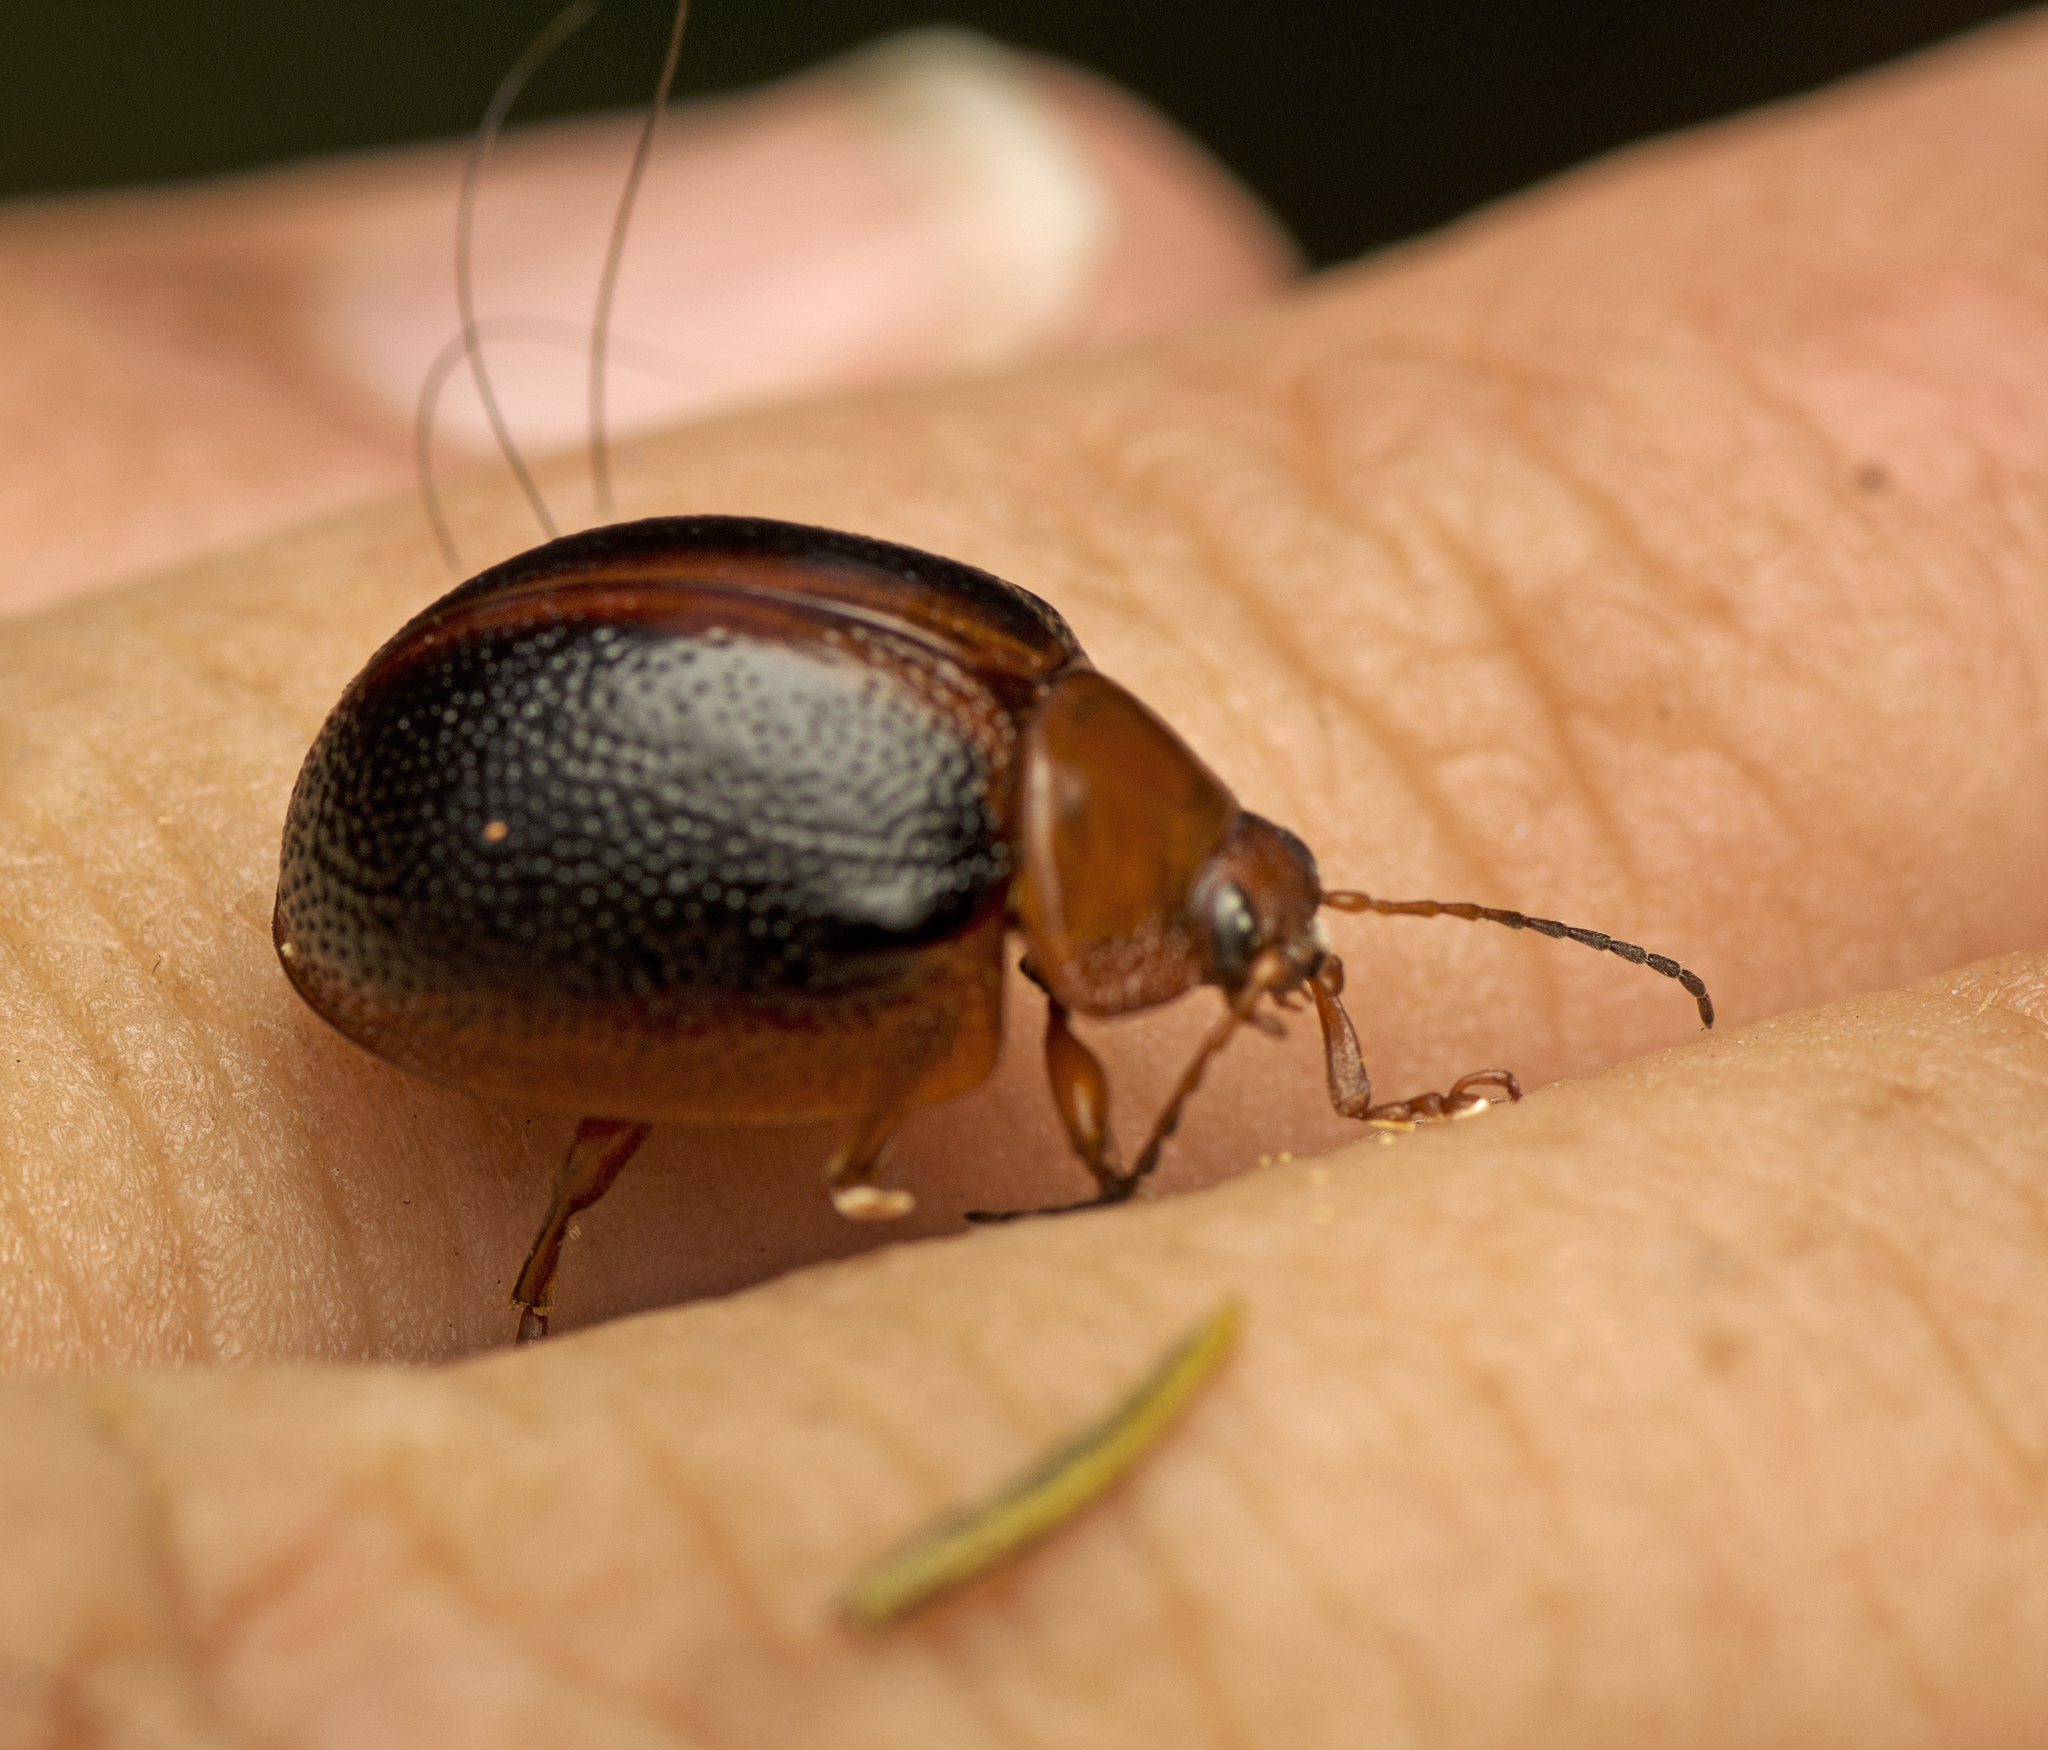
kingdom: Animalia
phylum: Arthropoda
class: Insecta
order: Coleoptera
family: Chrysomelidae
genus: Dicranosterna
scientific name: Dicranosterna
